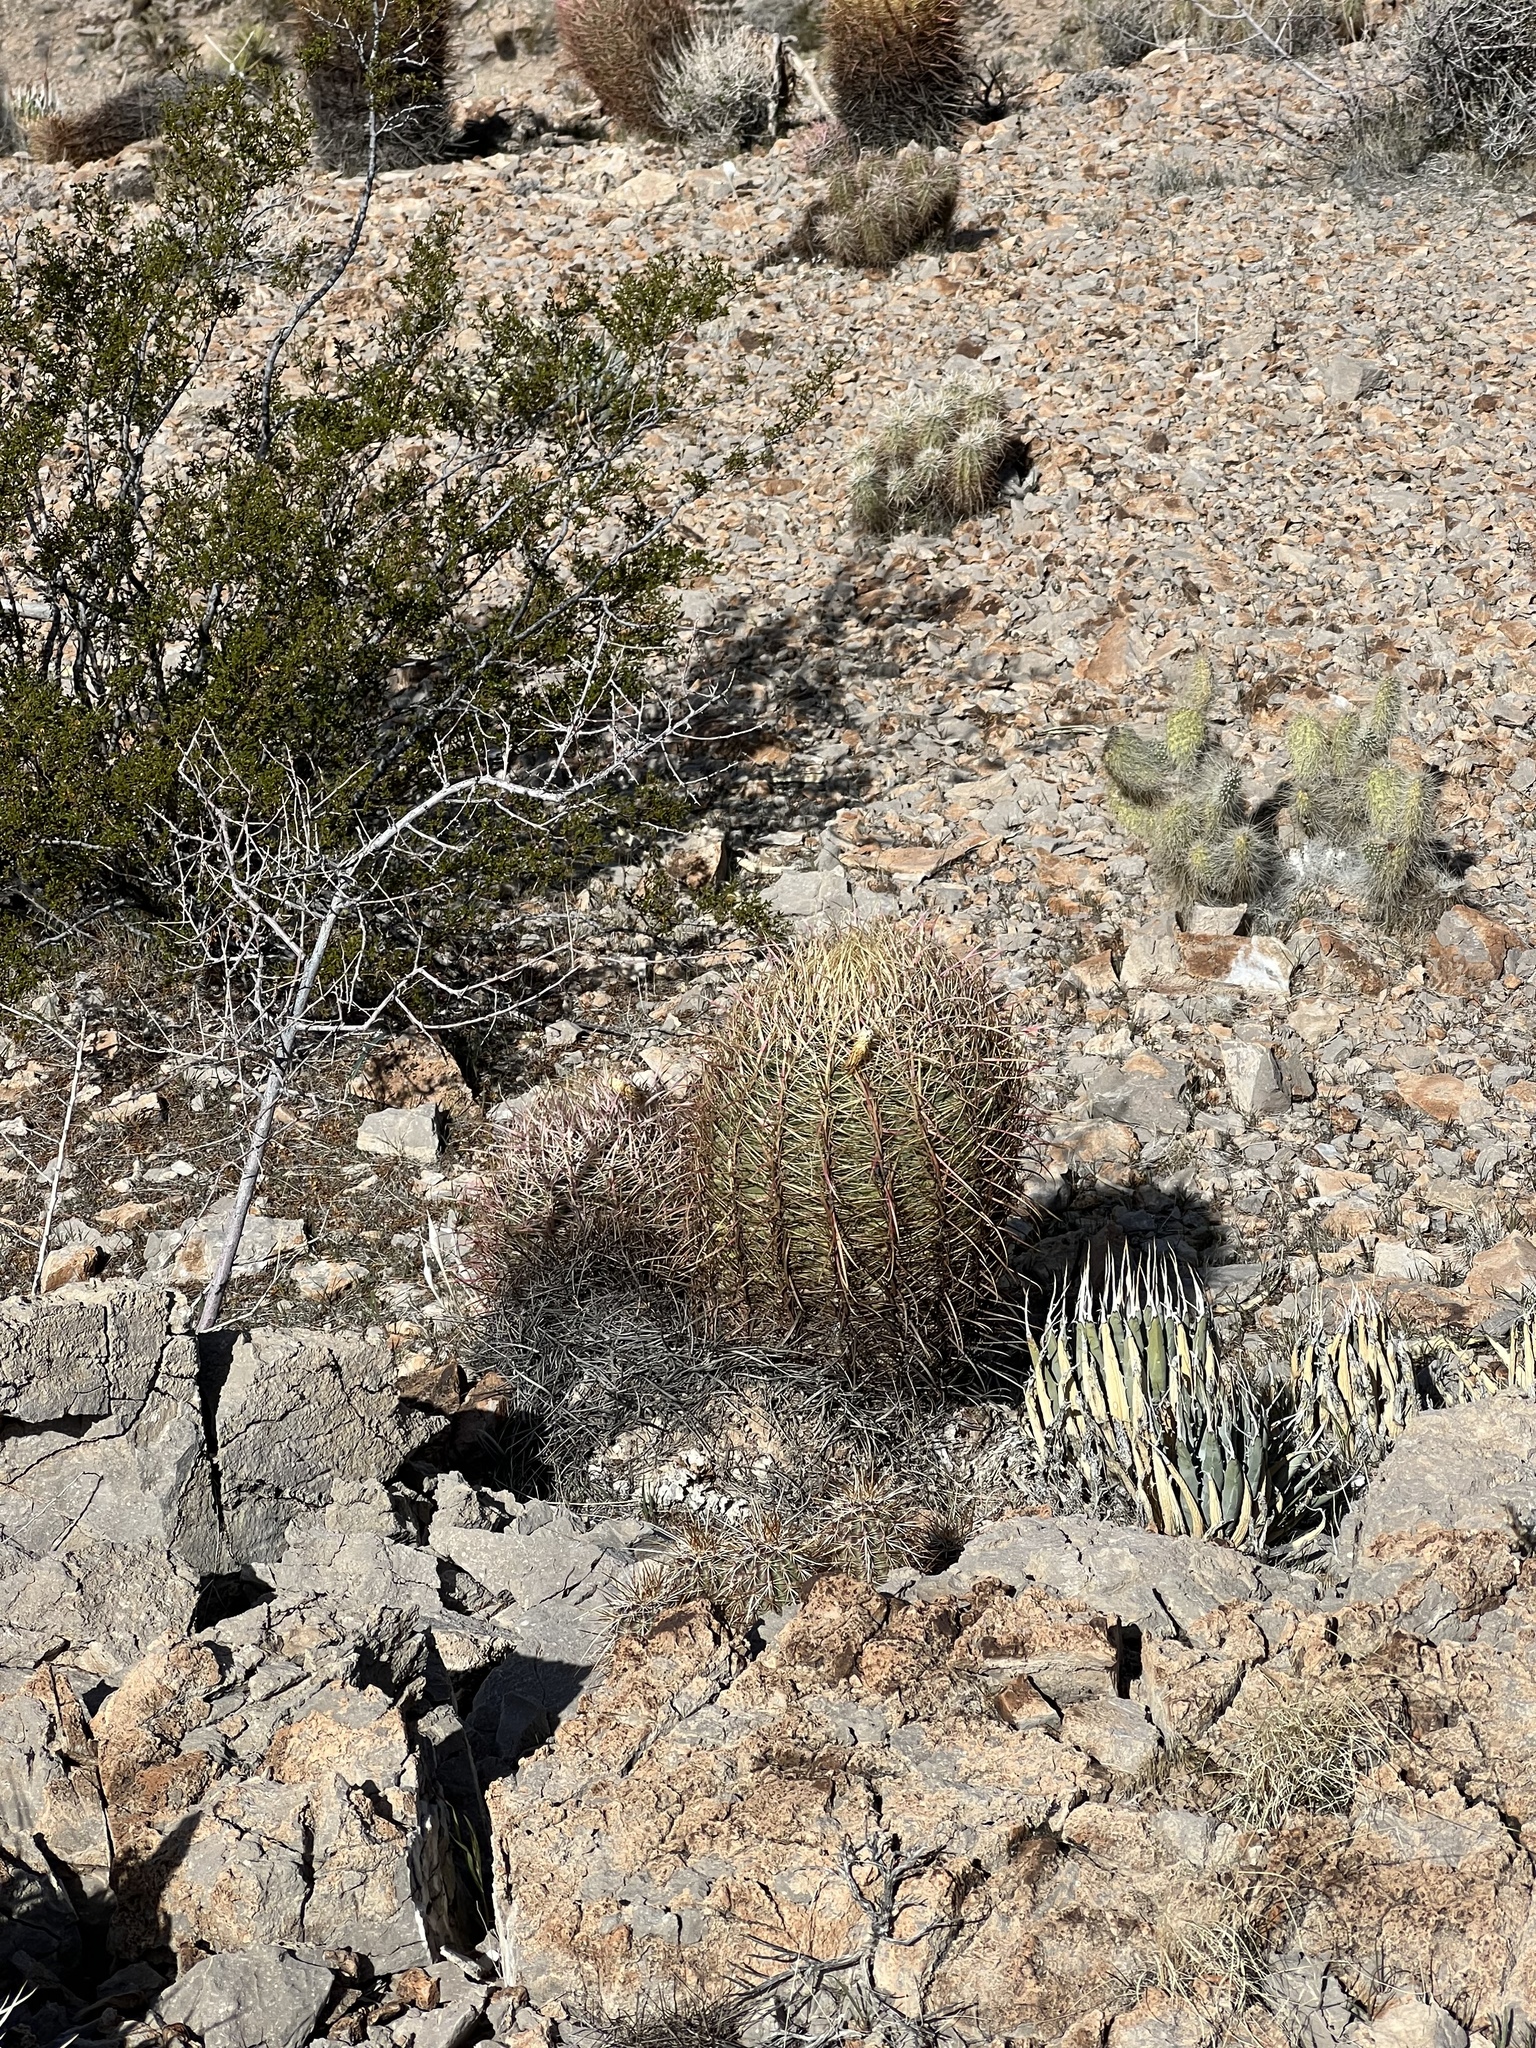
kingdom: Plantae
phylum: Tracheophyta
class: Magnoliopsida
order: Caryophyllales
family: Cactaceae
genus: Ferocactus
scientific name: Ferocactus cylindraceus
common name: California barrel cactus
